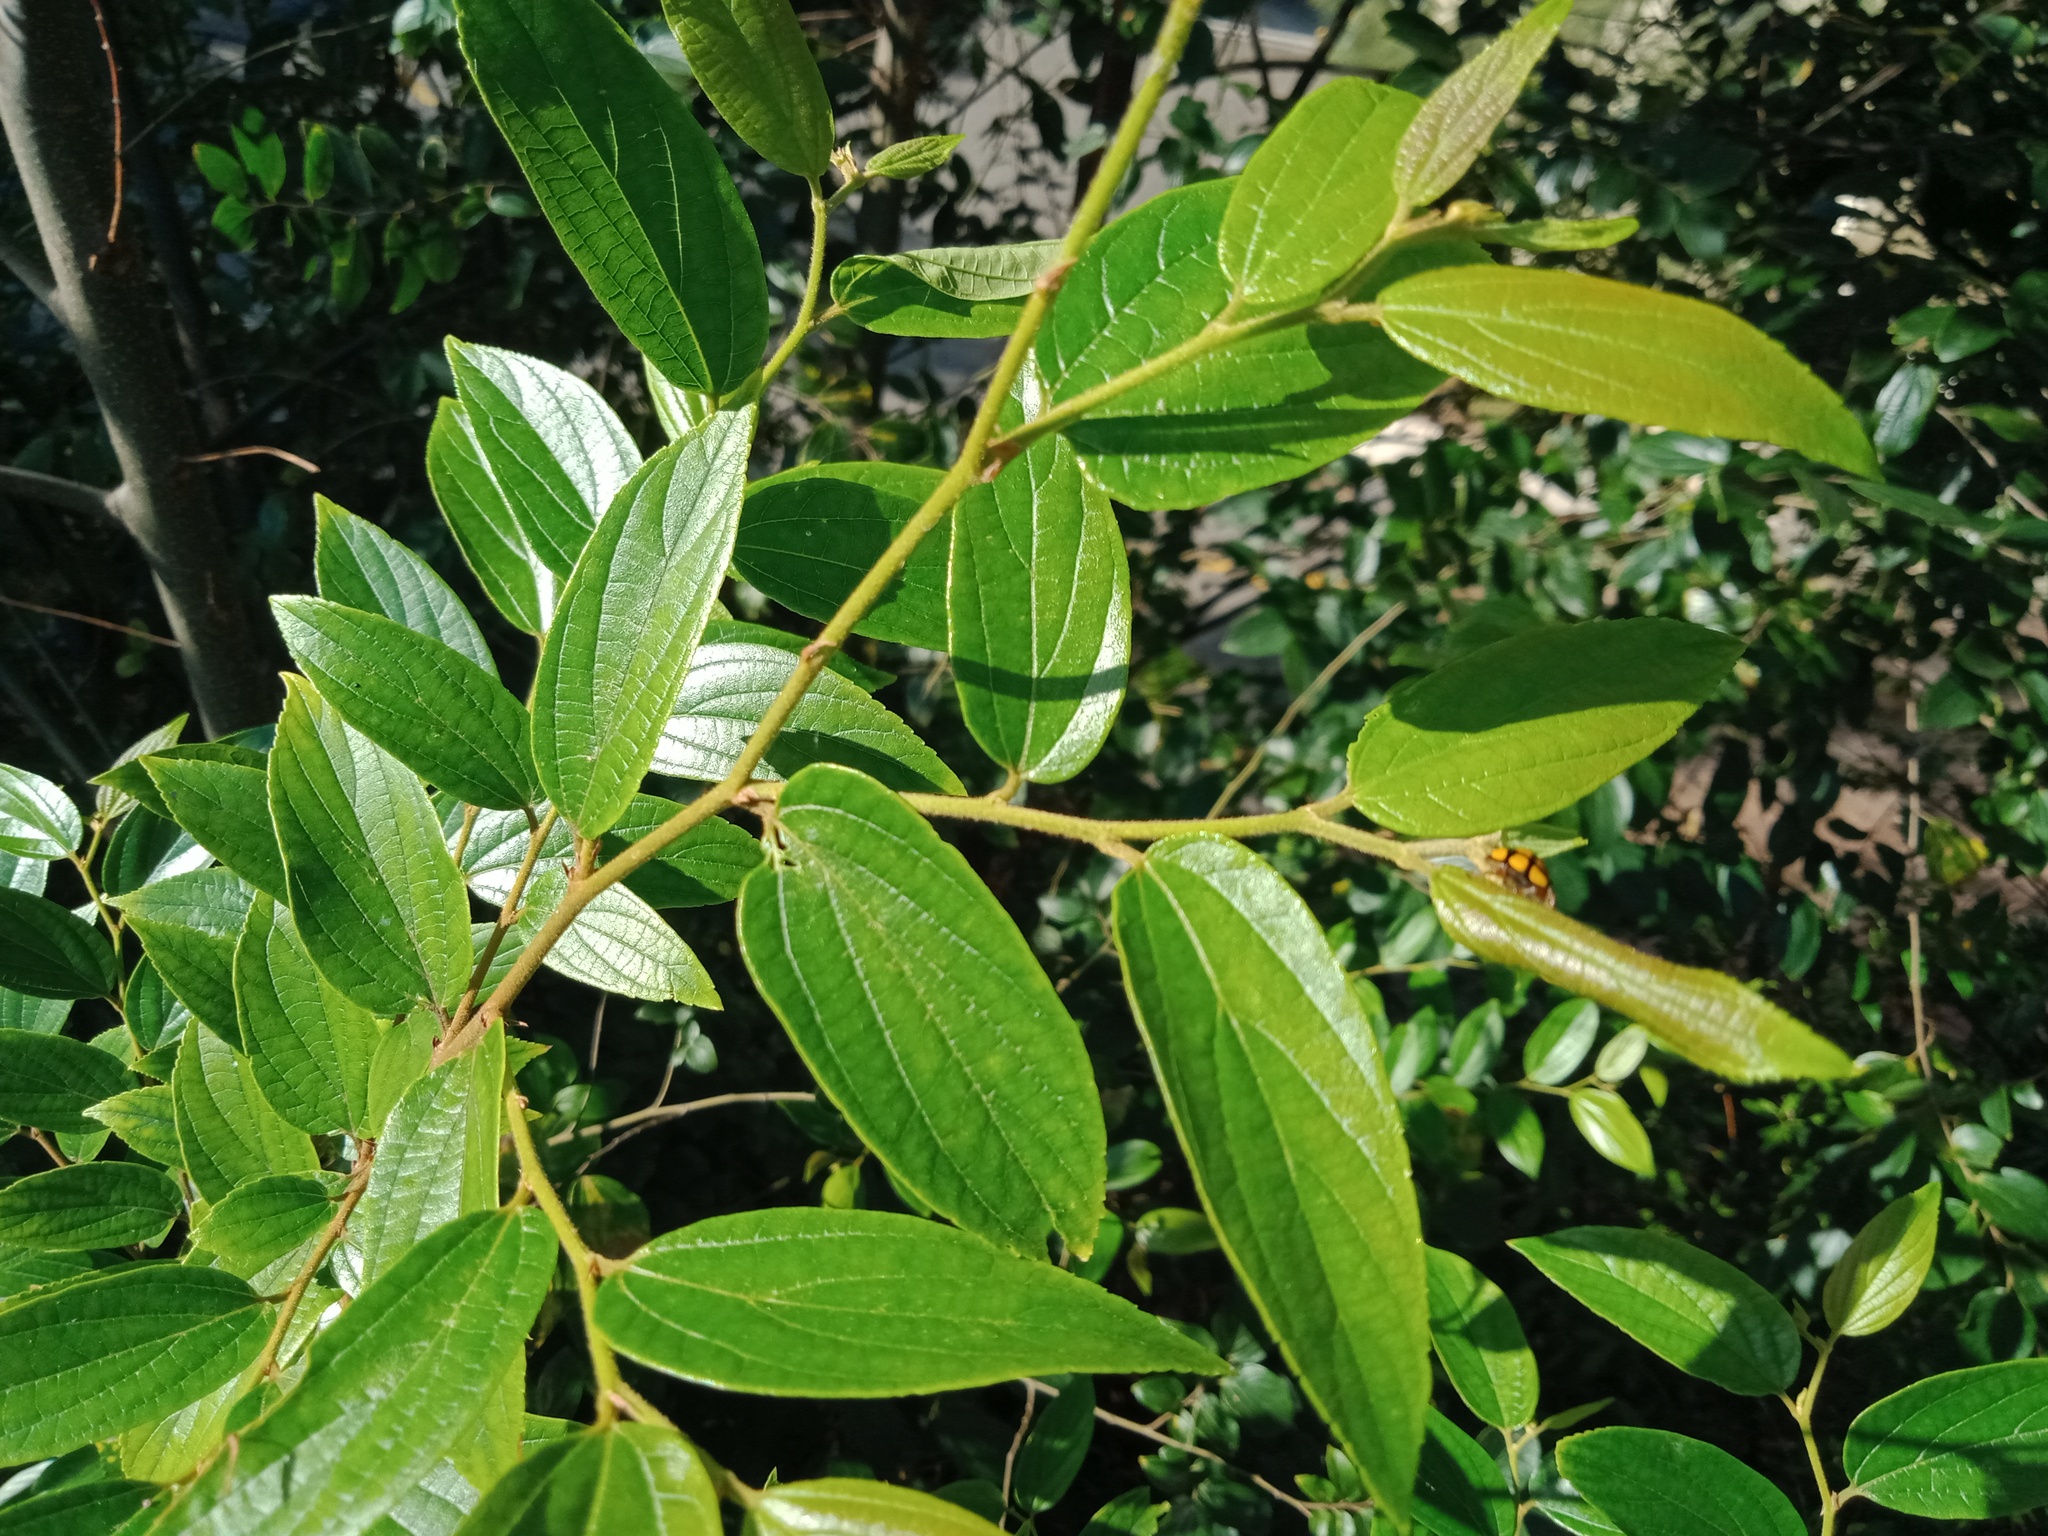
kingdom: Plantae
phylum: Tracheophyta
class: Magnoliopsida
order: Rosales
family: Cannabaceae
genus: Celtis
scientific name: Celtis sinensis
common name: Chinese hackberry
